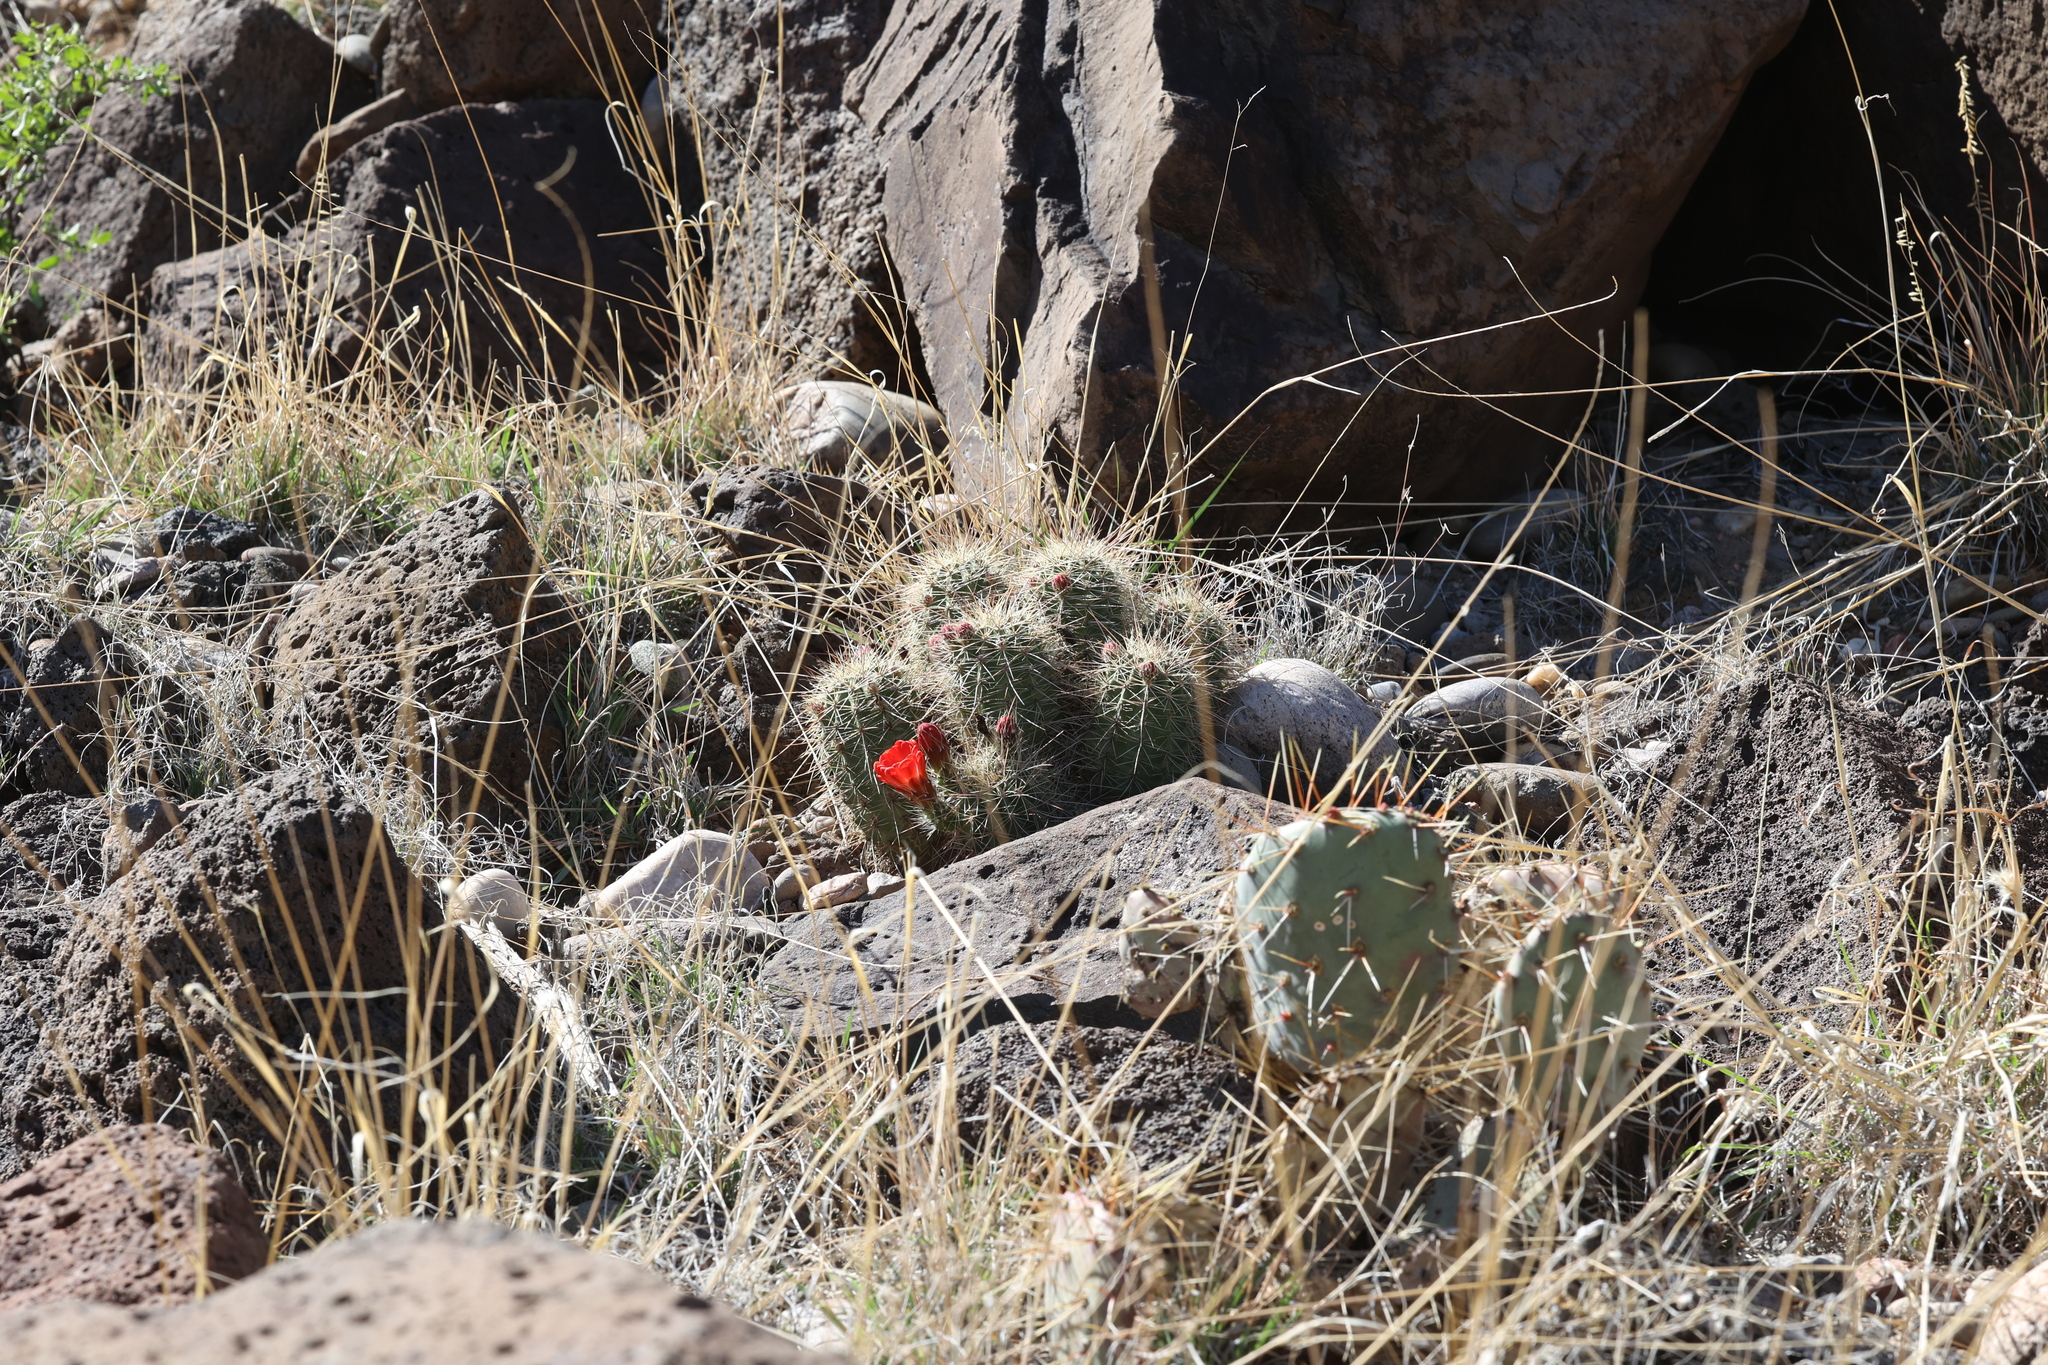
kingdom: Plantae
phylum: Tracheophyta
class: Magnoliopsida
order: Caryophyllales
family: Cactaceae
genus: Echinocereus
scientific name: Echinocereus coccineus
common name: Scarlet hedgehog cactus
